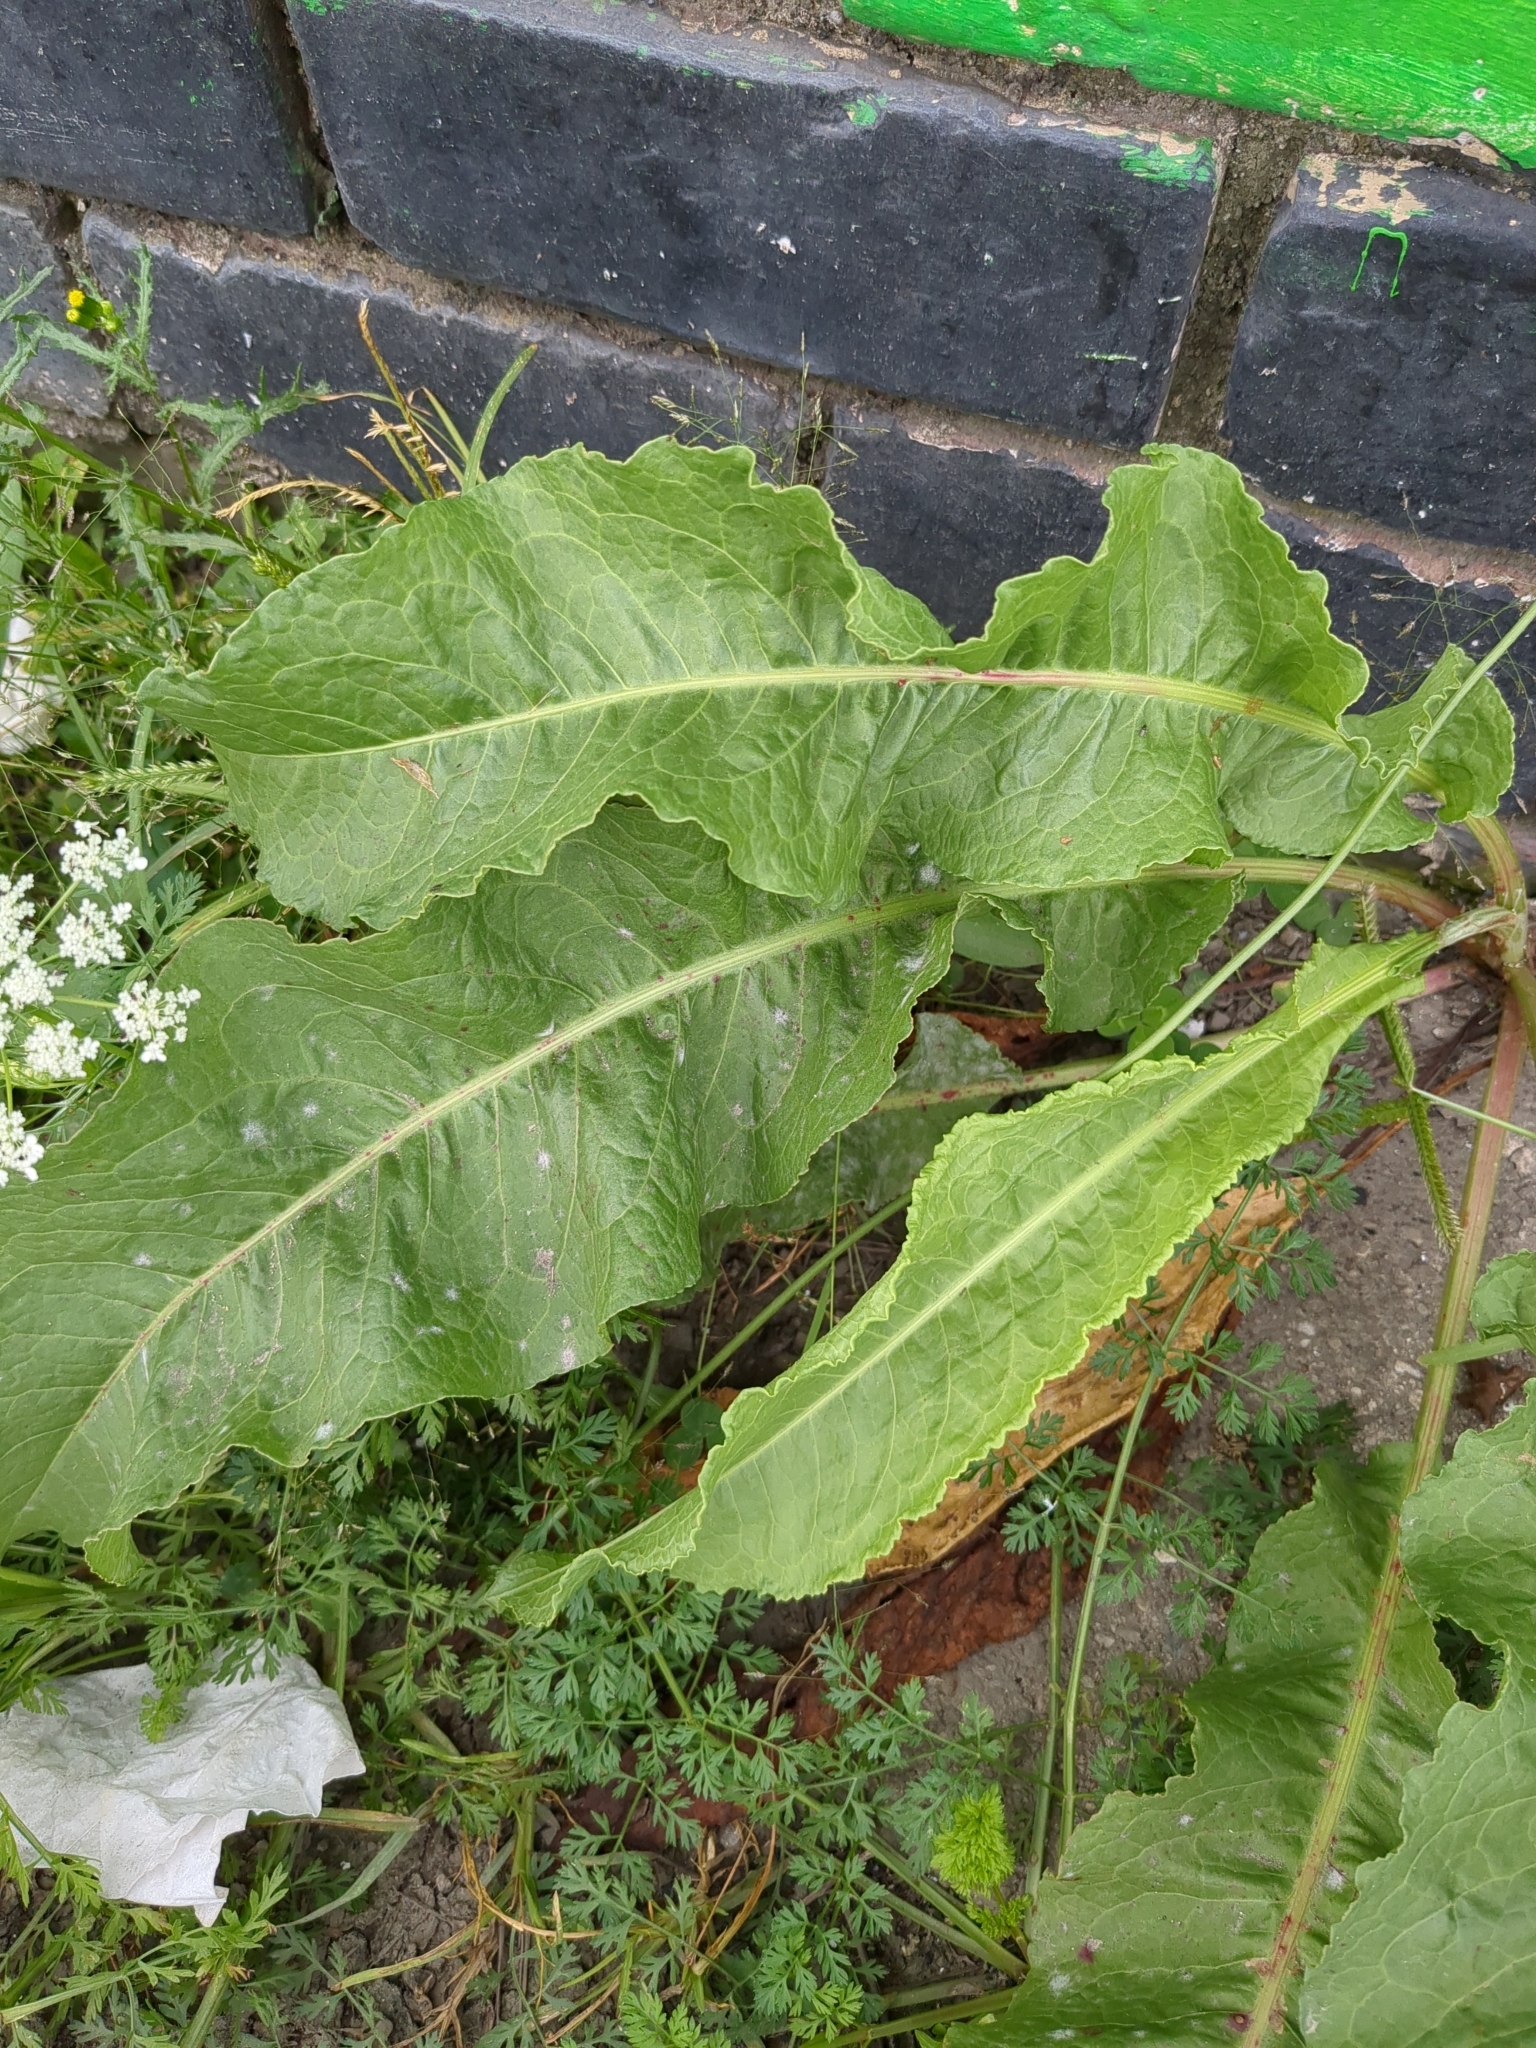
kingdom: Plantae
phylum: Tracheophyta
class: Magnoliopsida
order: Caryophyllales
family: Polygonaceae
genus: Rumex
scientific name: Rumex crispus
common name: Curled dock
